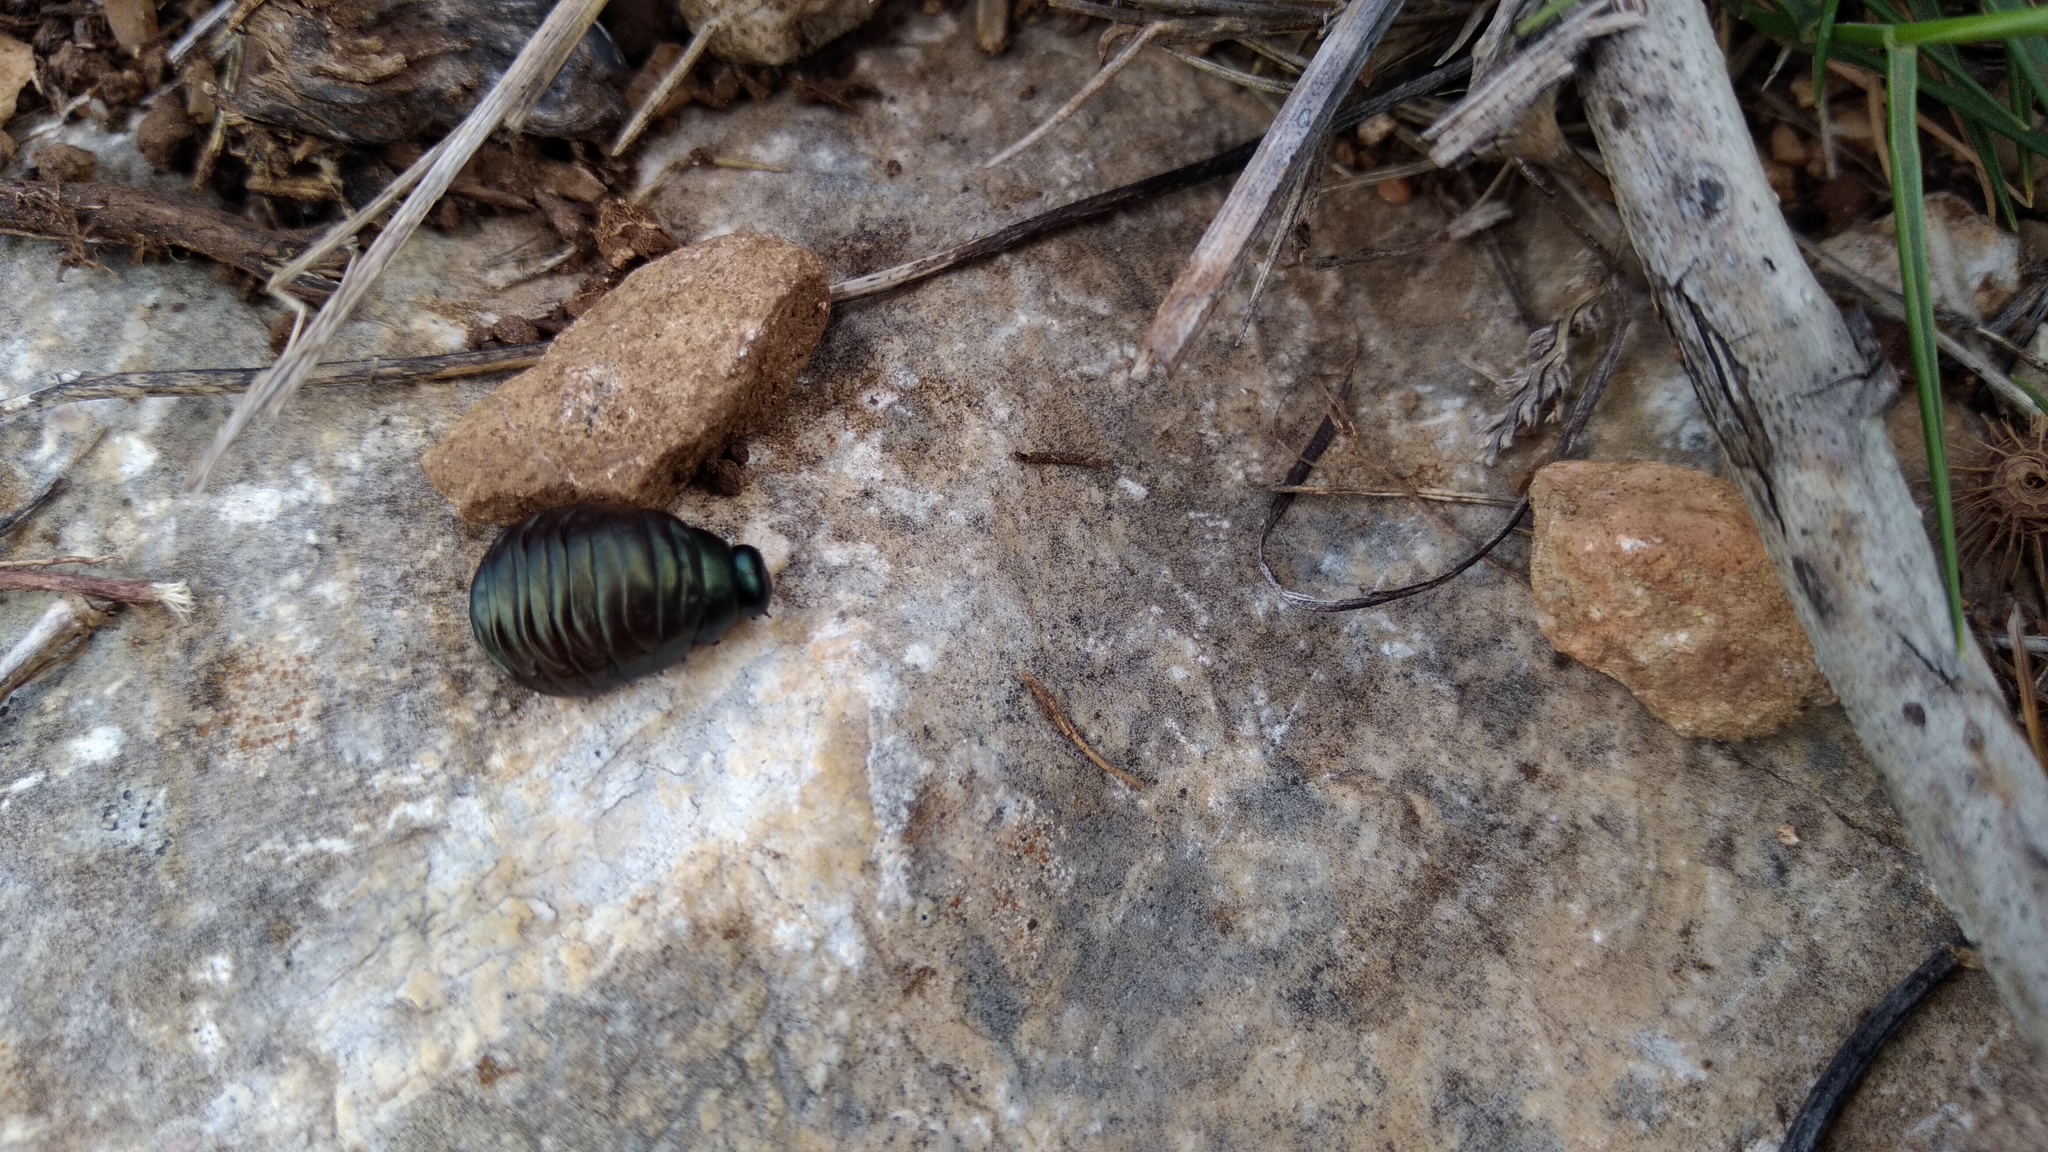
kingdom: Animalia
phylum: Arthropoda
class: Insecta
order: Coleoptera
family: Chrysomelidae
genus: Timarcha
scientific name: Timarcha
